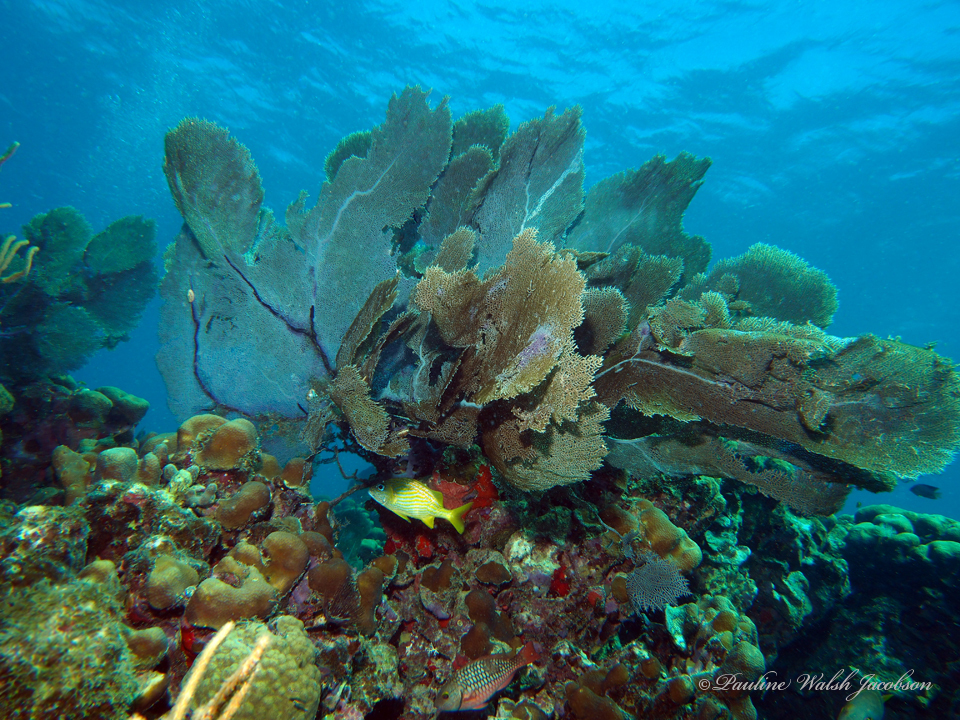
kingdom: Animalia
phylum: Cnidaria
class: Anthozoa
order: Malacalcyonacea
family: Gorgoniidae
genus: Gorgonia
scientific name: Gorgonia ventalina
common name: Common sea fan
